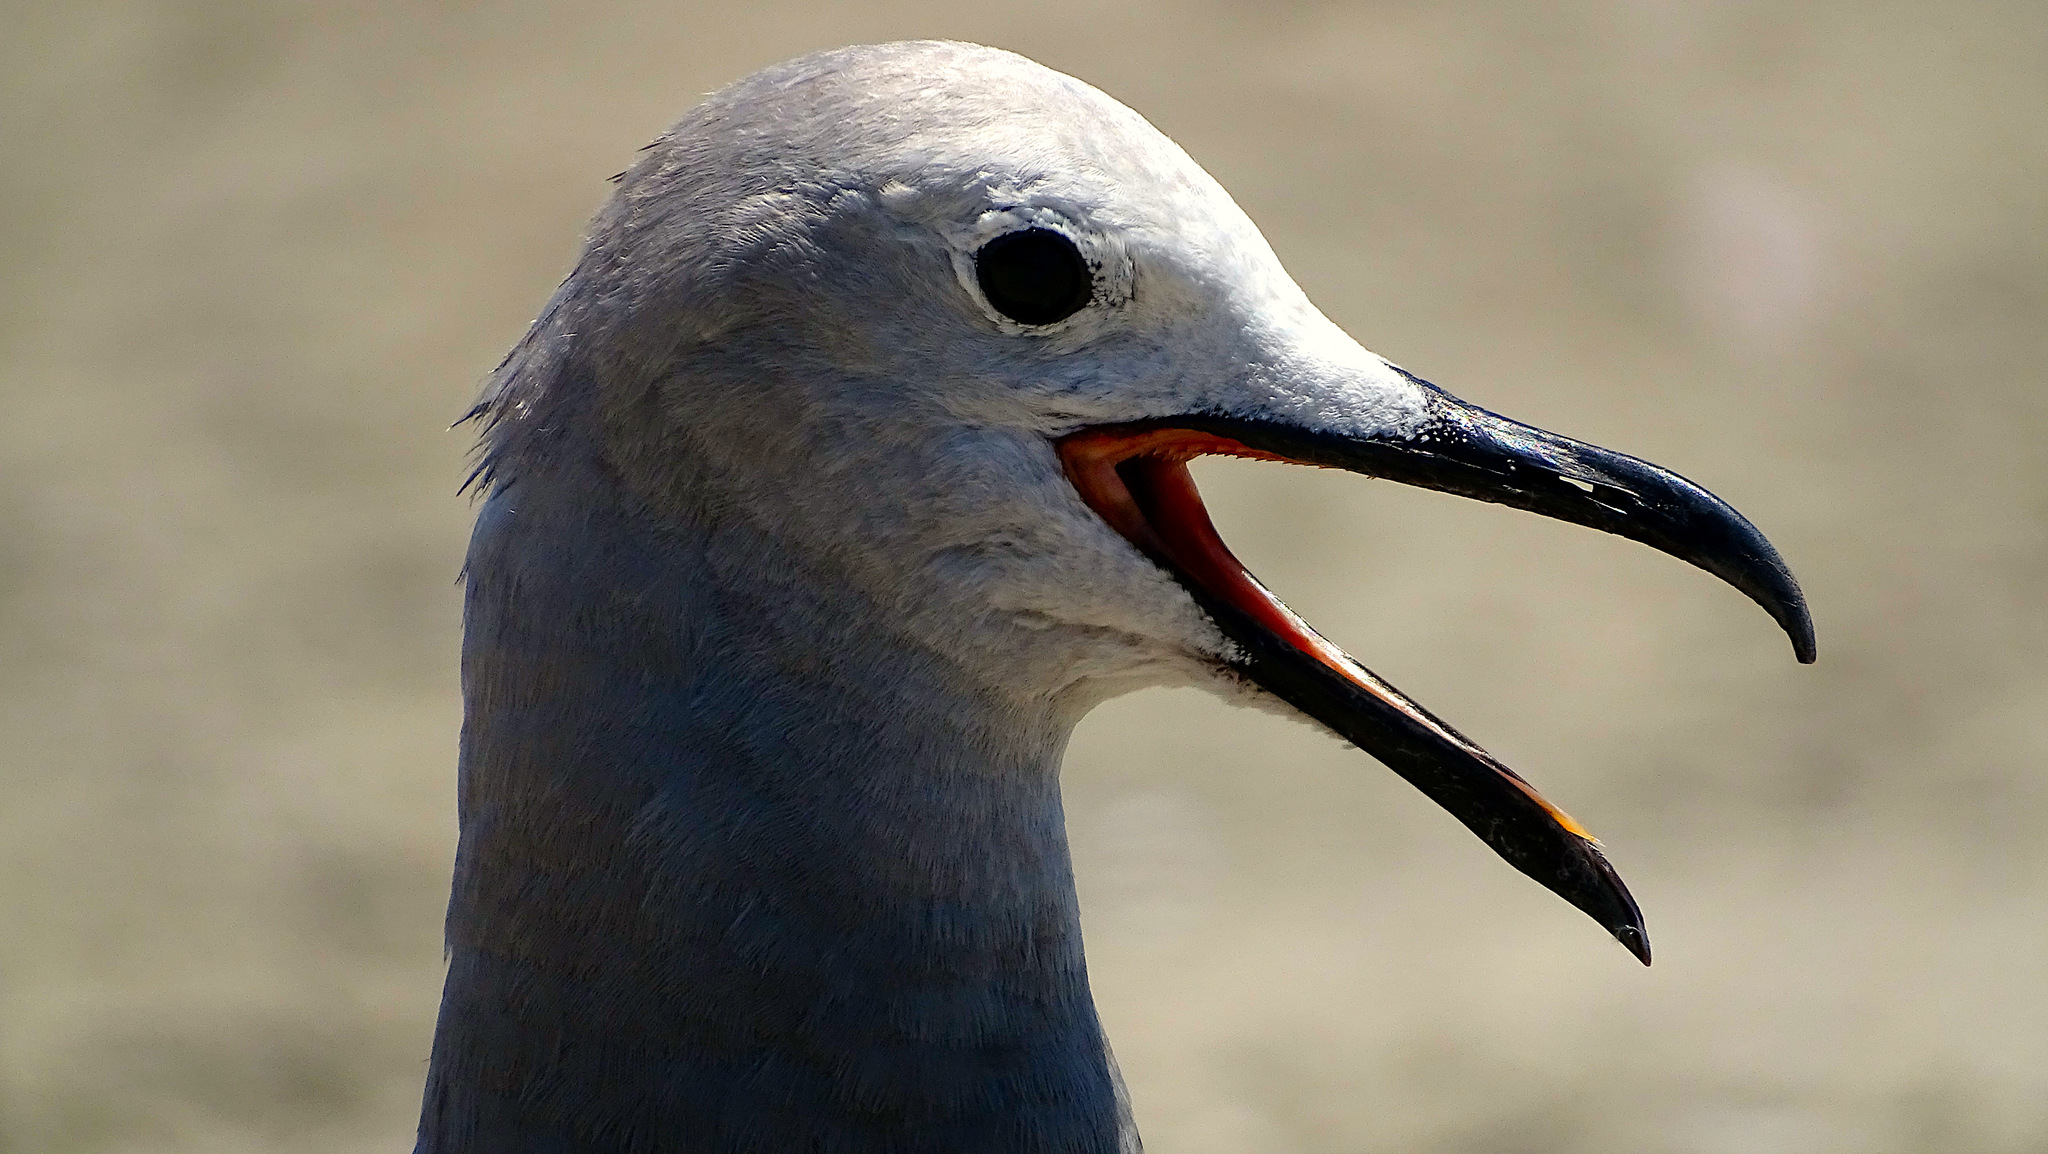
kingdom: Animalia
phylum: Chordata
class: Aves
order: Charadriiformes
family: Laridae
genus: Leucophaeus
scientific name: Leucophaeus modestus
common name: Gray gull
